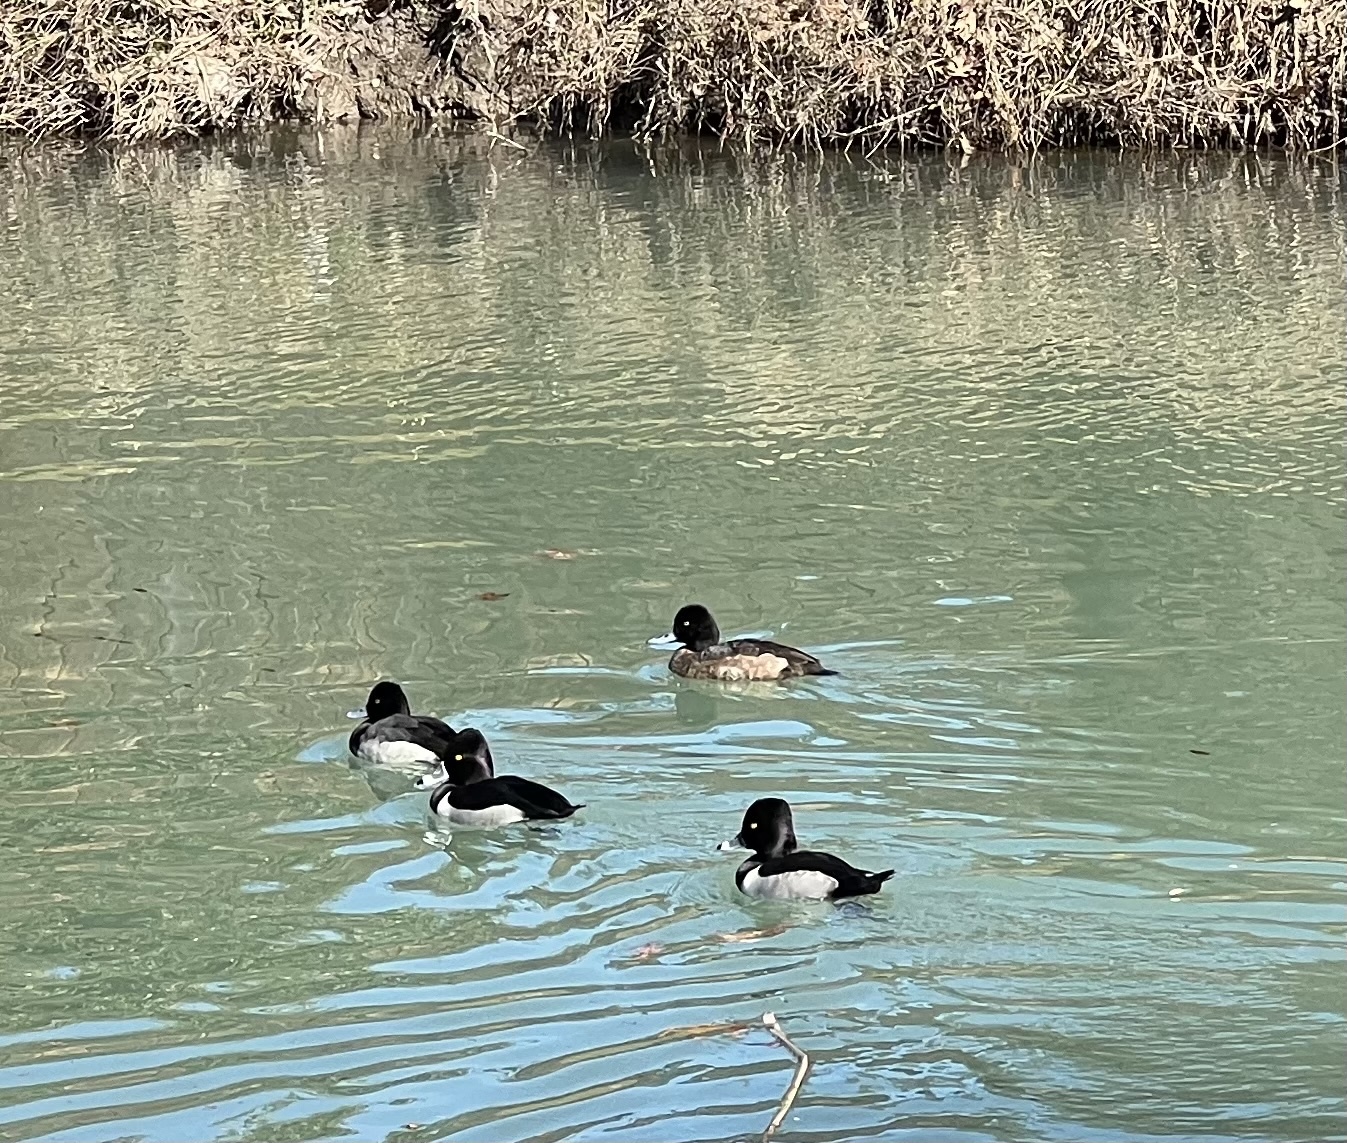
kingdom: Animalia
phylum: Chordata
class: Aves
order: Anseriformes
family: Anatidae
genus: Aythya
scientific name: Aythya collaris
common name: Ring-necked duck
